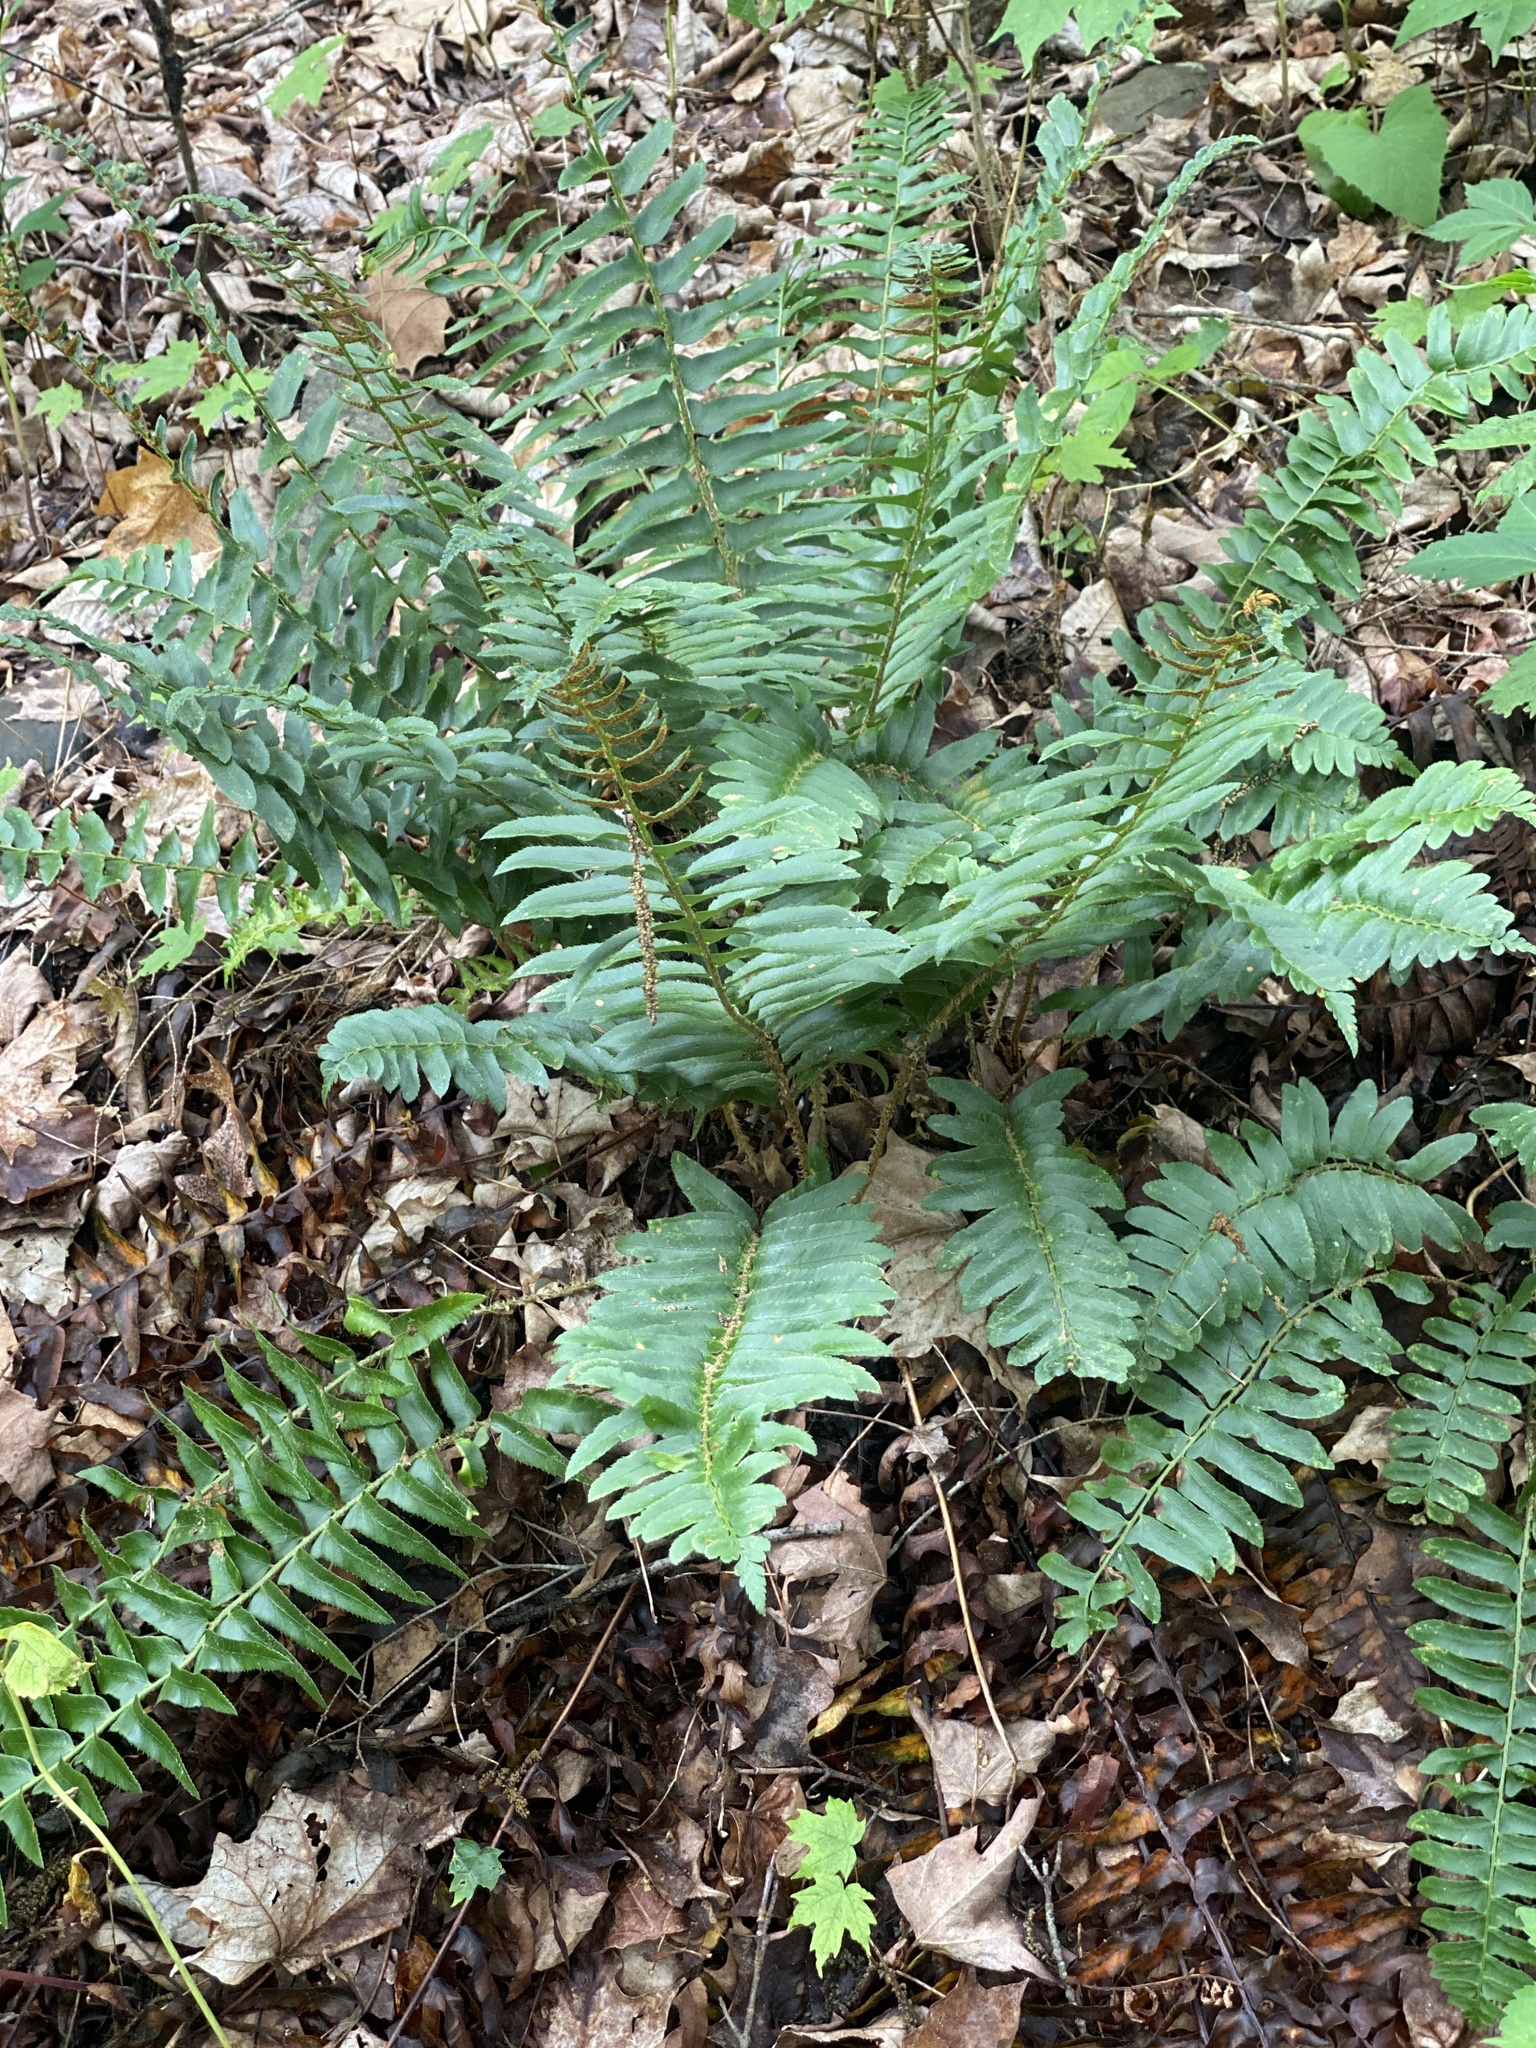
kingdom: Plantae
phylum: Tracheophyta
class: Polypodiopsida
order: Polypodiales
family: Dryopteridaceae
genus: Polystichum
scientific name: Polystichum acrostichoides
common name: Christmas fern
